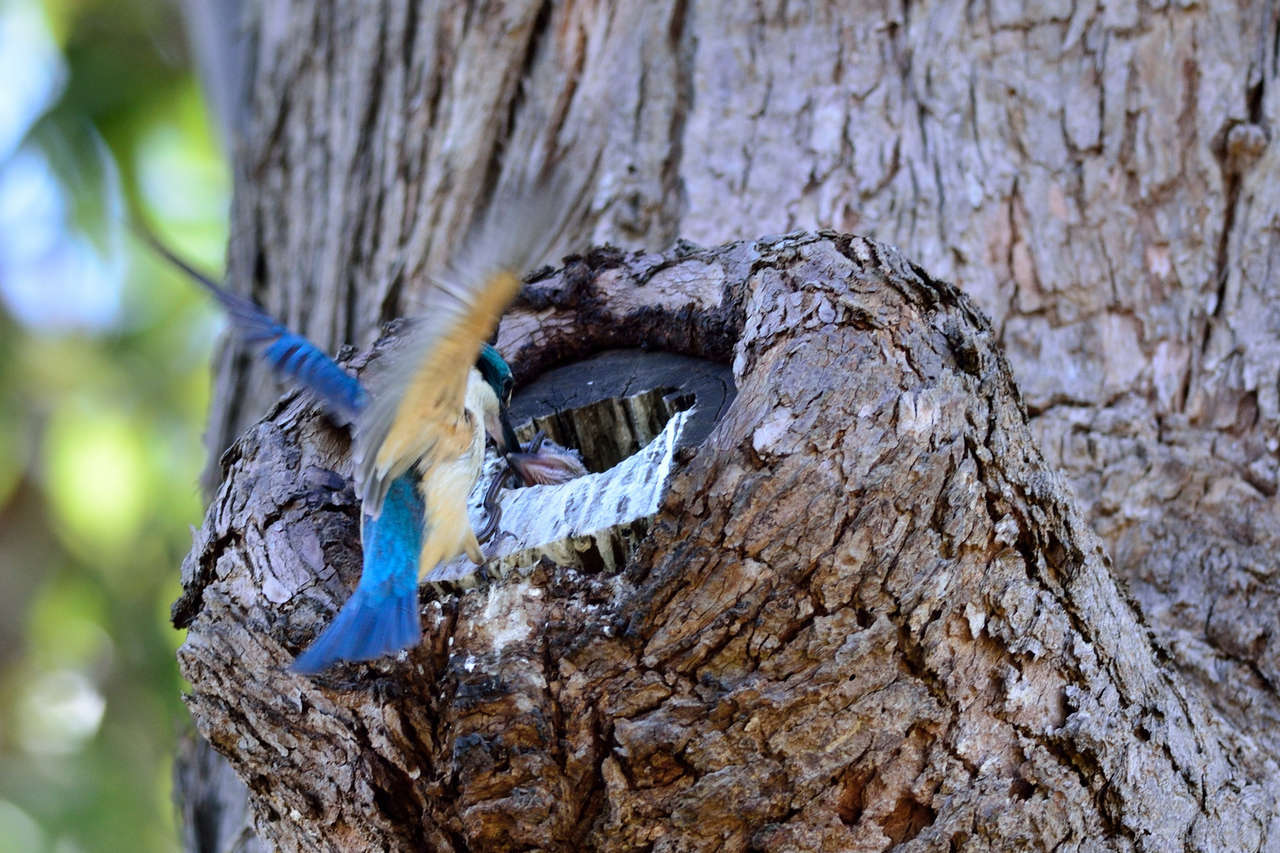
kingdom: Animalia
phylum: Chordata
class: Aves
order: Coraciiformes
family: Alcedinidae
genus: Todiramphus
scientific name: Todiramphus sanctus
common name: Sacred kingfisher
